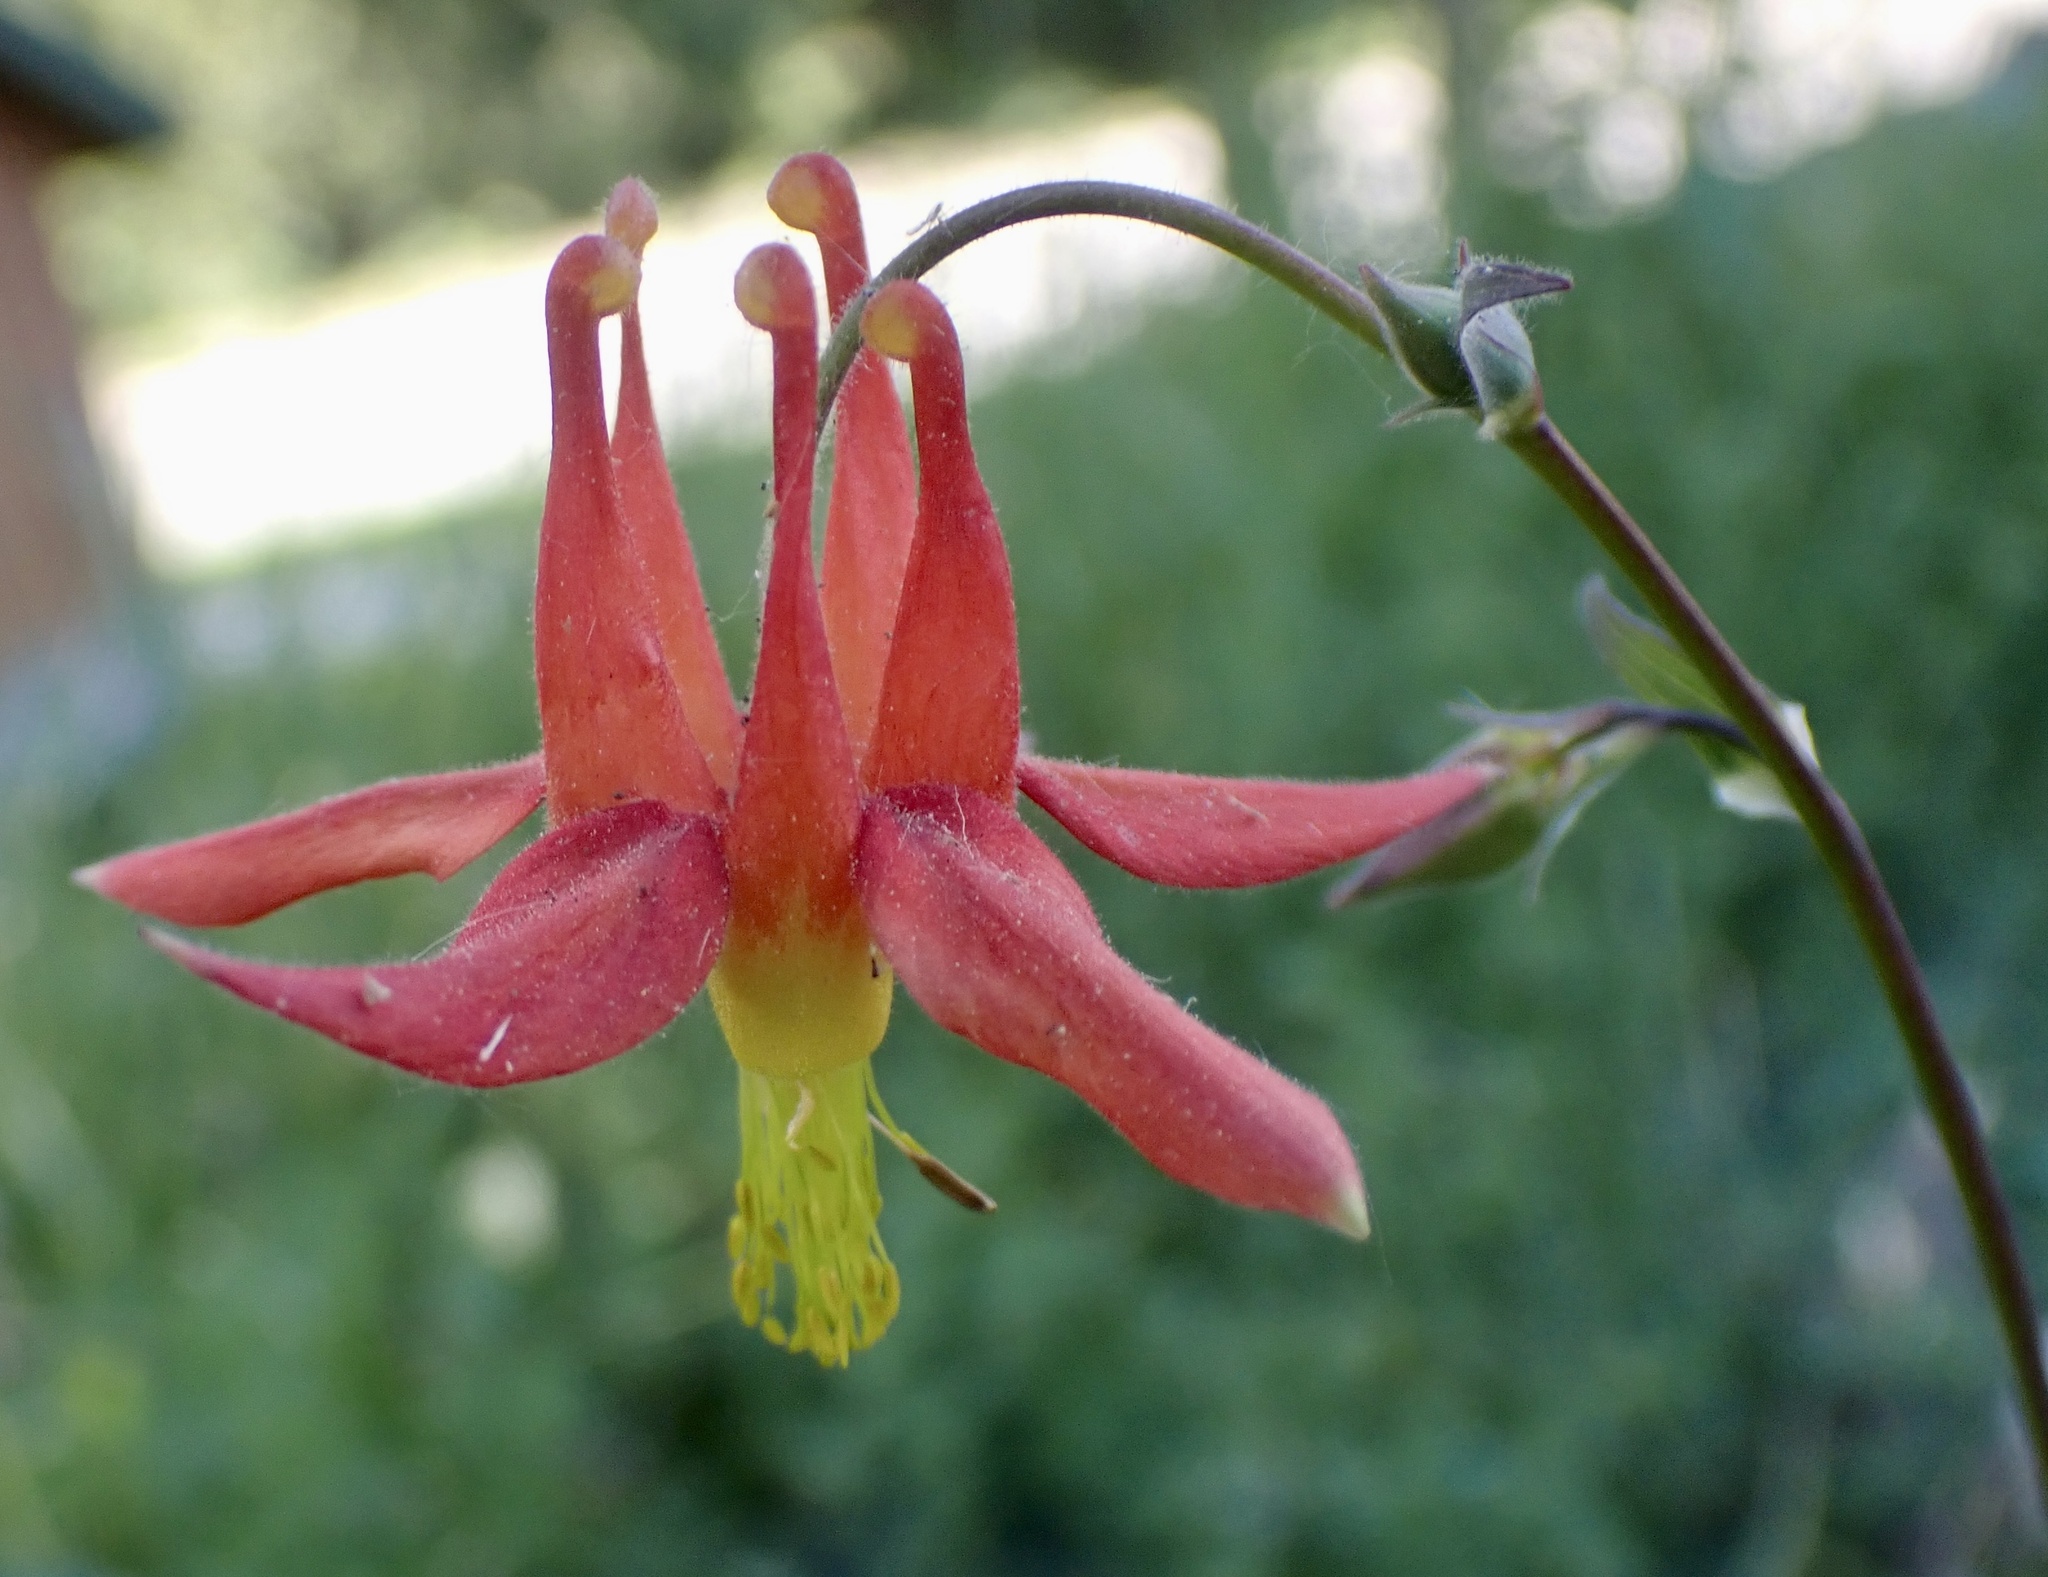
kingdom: Plantae
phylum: Tracheophyta
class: Magnoliopsida
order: Ranunculales
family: Ranunculaceae
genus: Aquilegia
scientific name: Aquilegia formosa
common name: Sitka columbine
